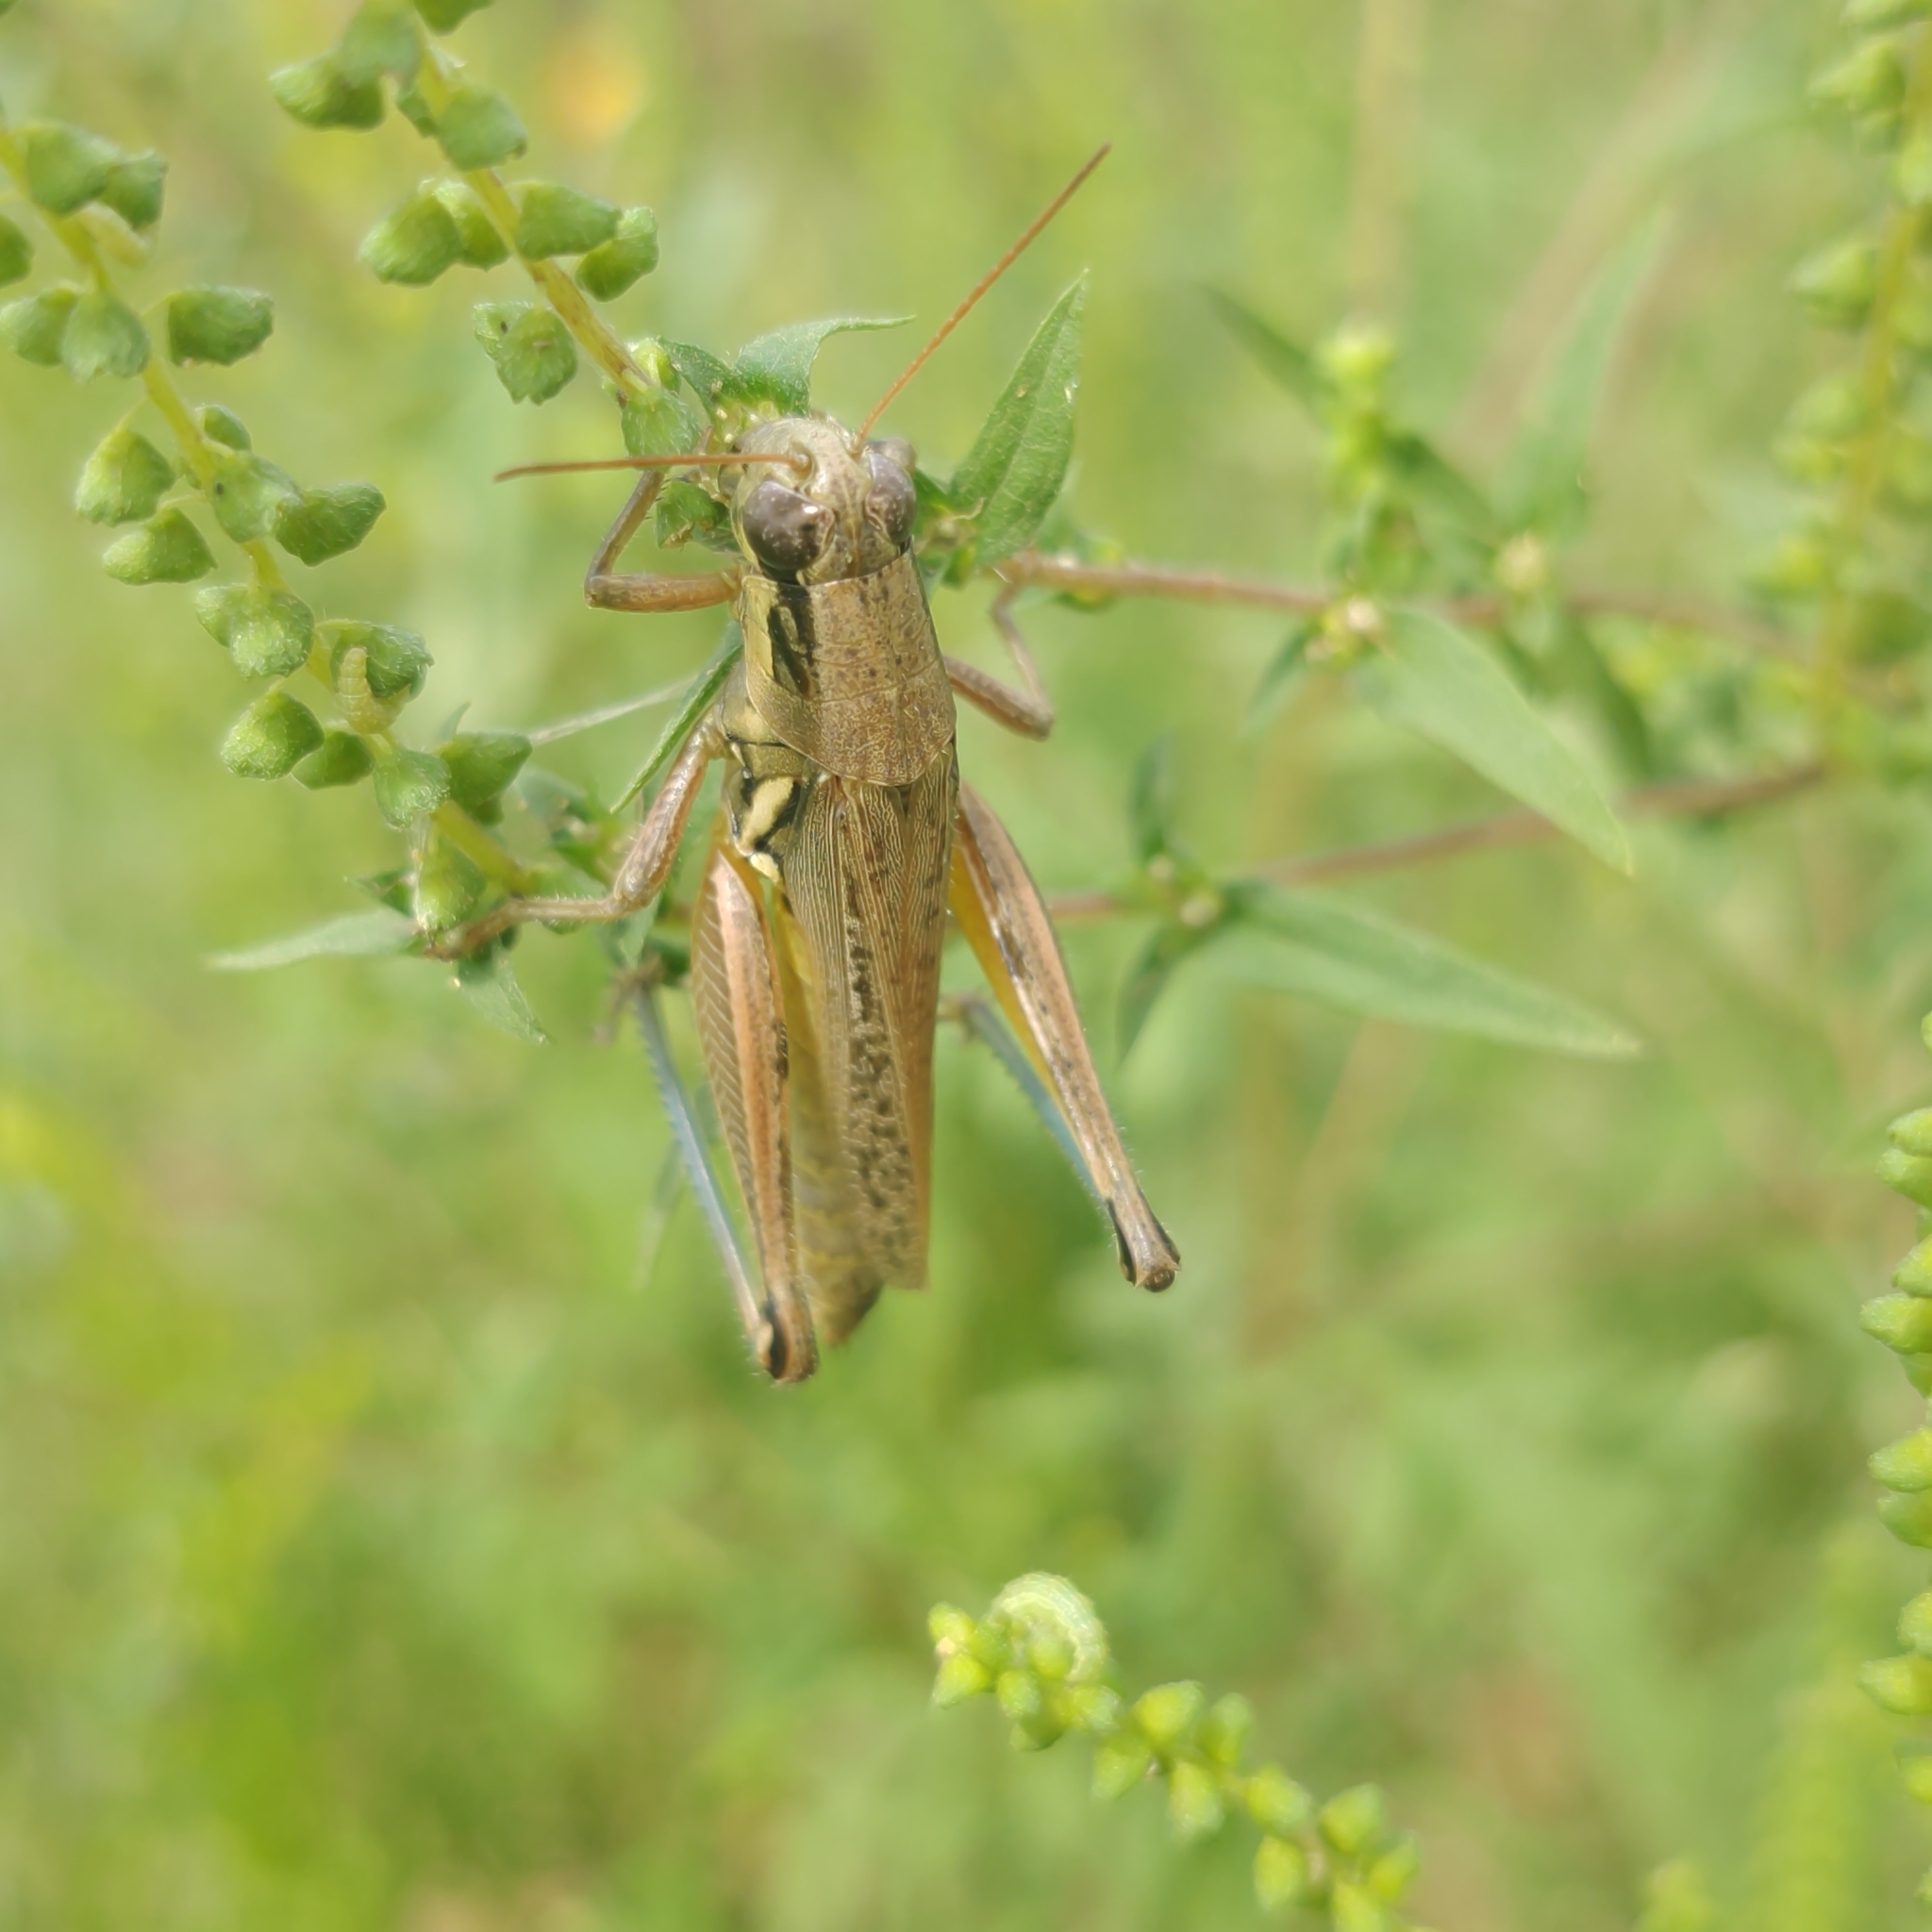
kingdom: Animalia
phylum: Arthropoda
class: Insecta
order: Orthoptera
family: Acrididae
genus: Paroxya
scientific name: Paroxya atlantica
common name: Atlantic grasshopper
